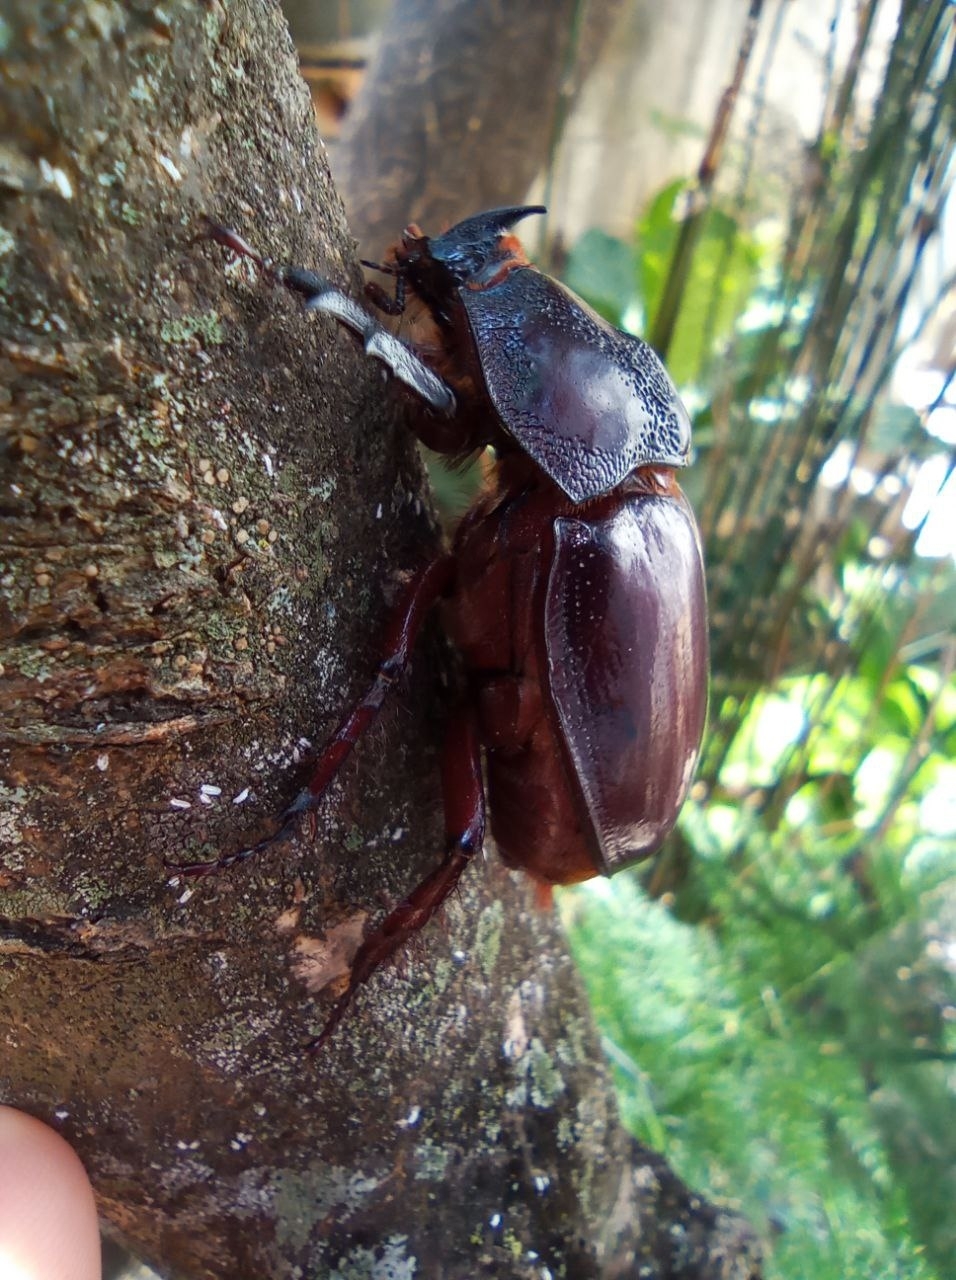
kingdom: Animalia
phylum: Arthropoda
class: Insecta
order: Coleoptera
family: Scarabaeidae
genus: Enema
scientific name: Enema endymion
